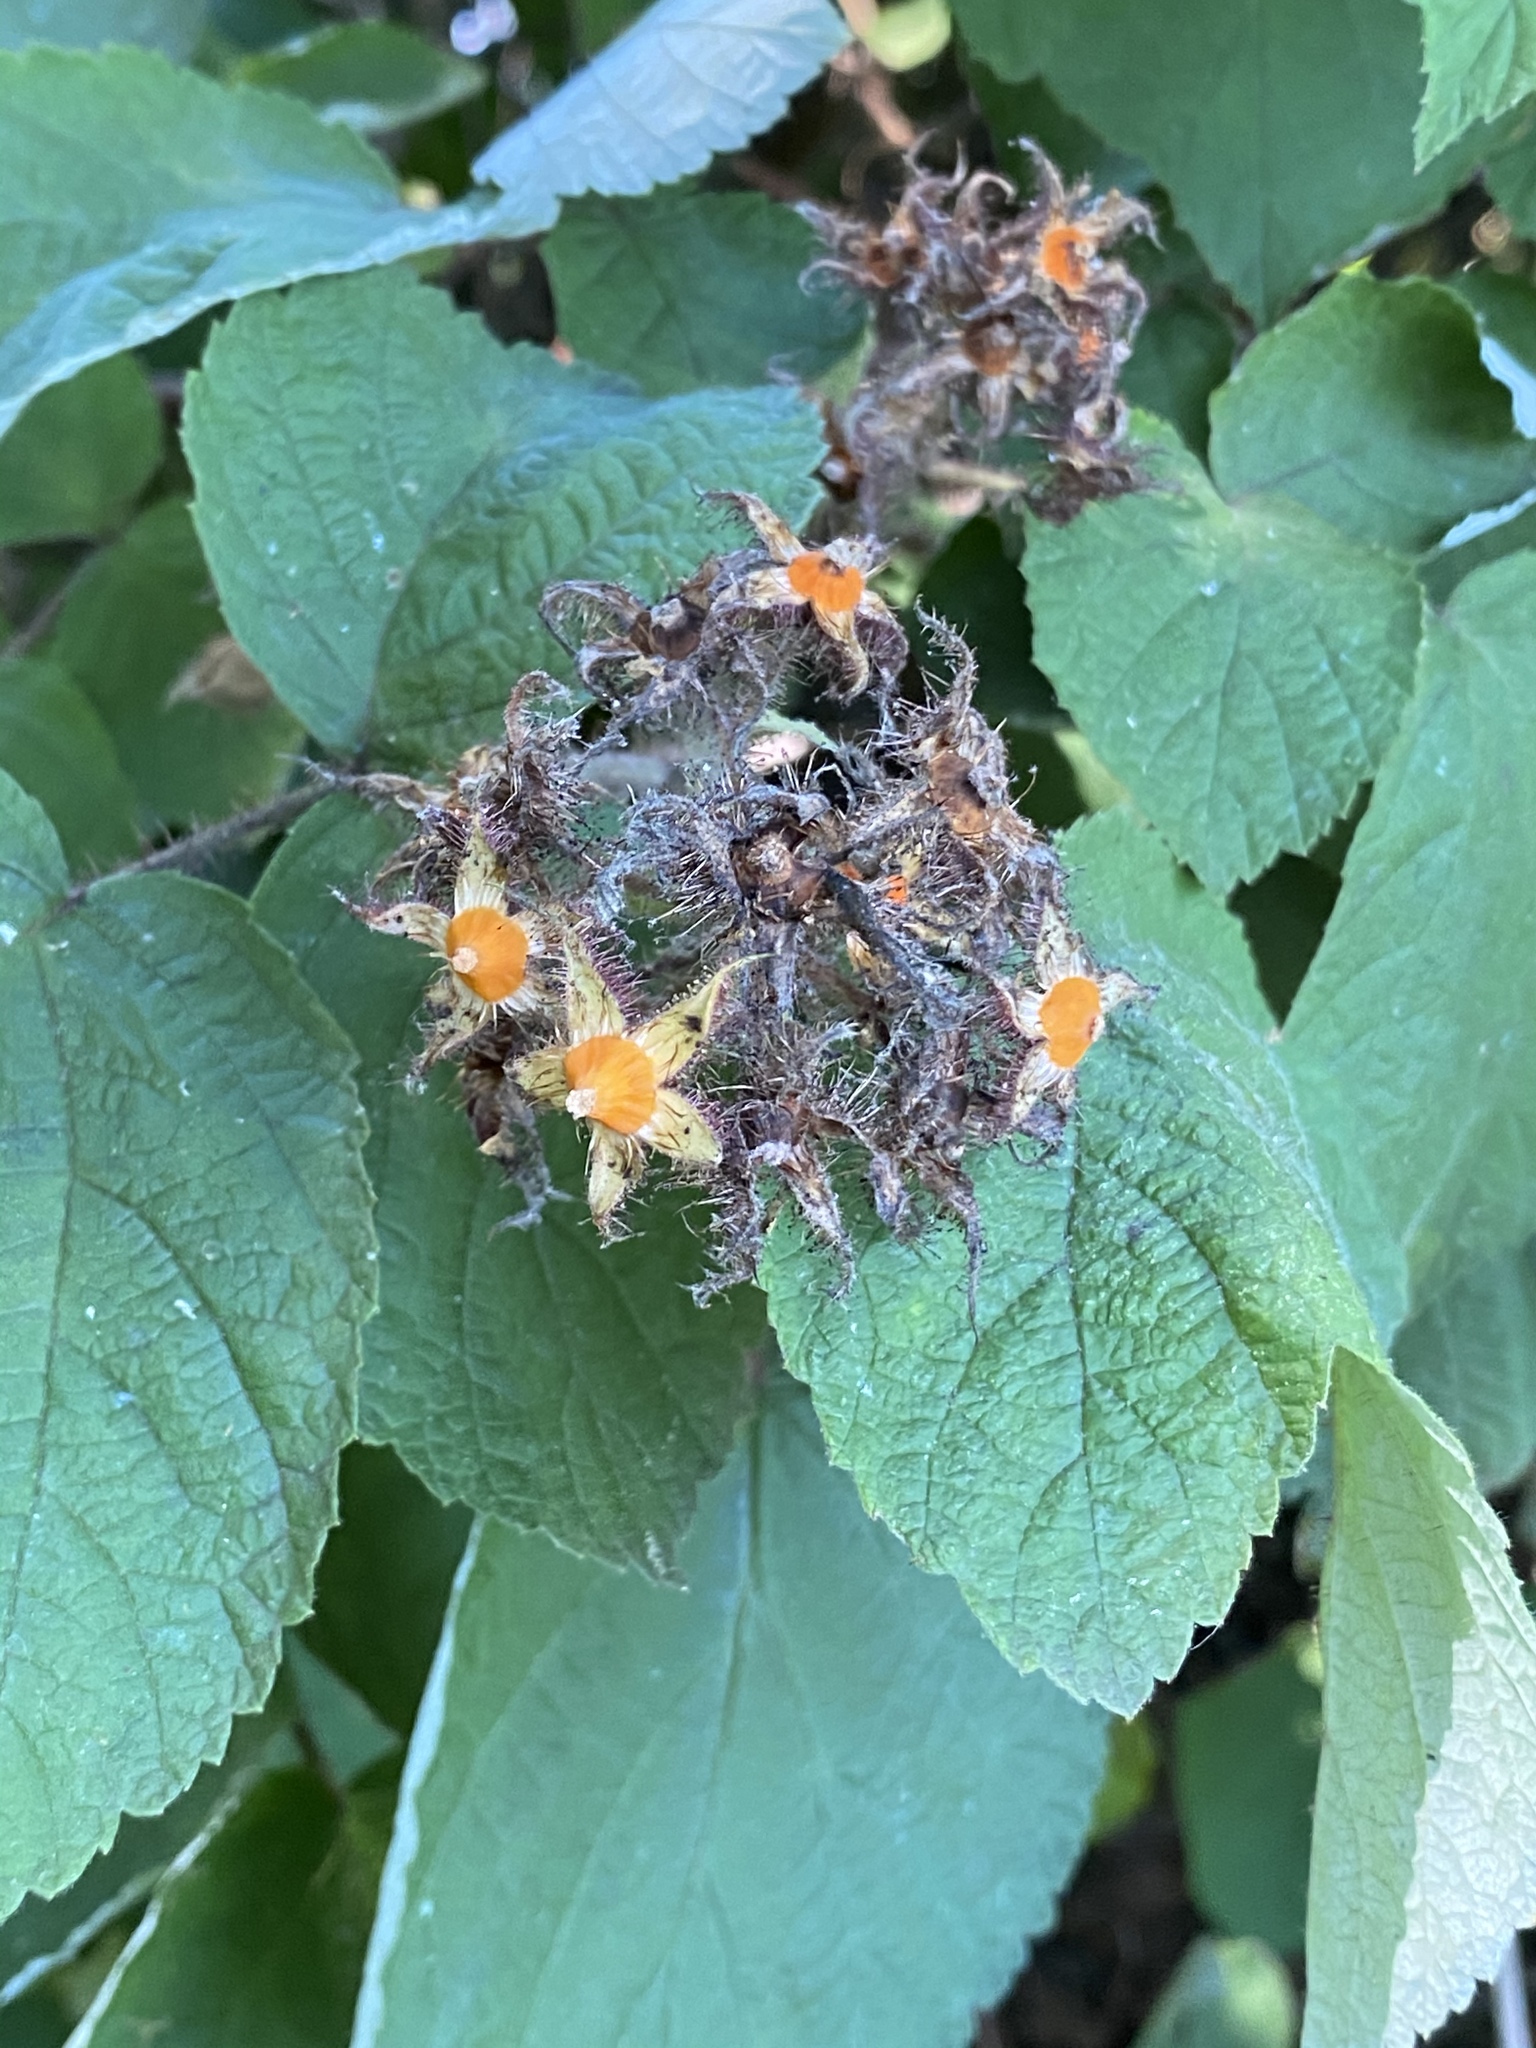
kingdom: Plantae
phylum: Tracheophyta
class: Magnoliopsida
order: Rosales
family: Rosaceae
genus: Rubus
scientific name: Rubus phoenicolasius
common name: Japanese wineberry
